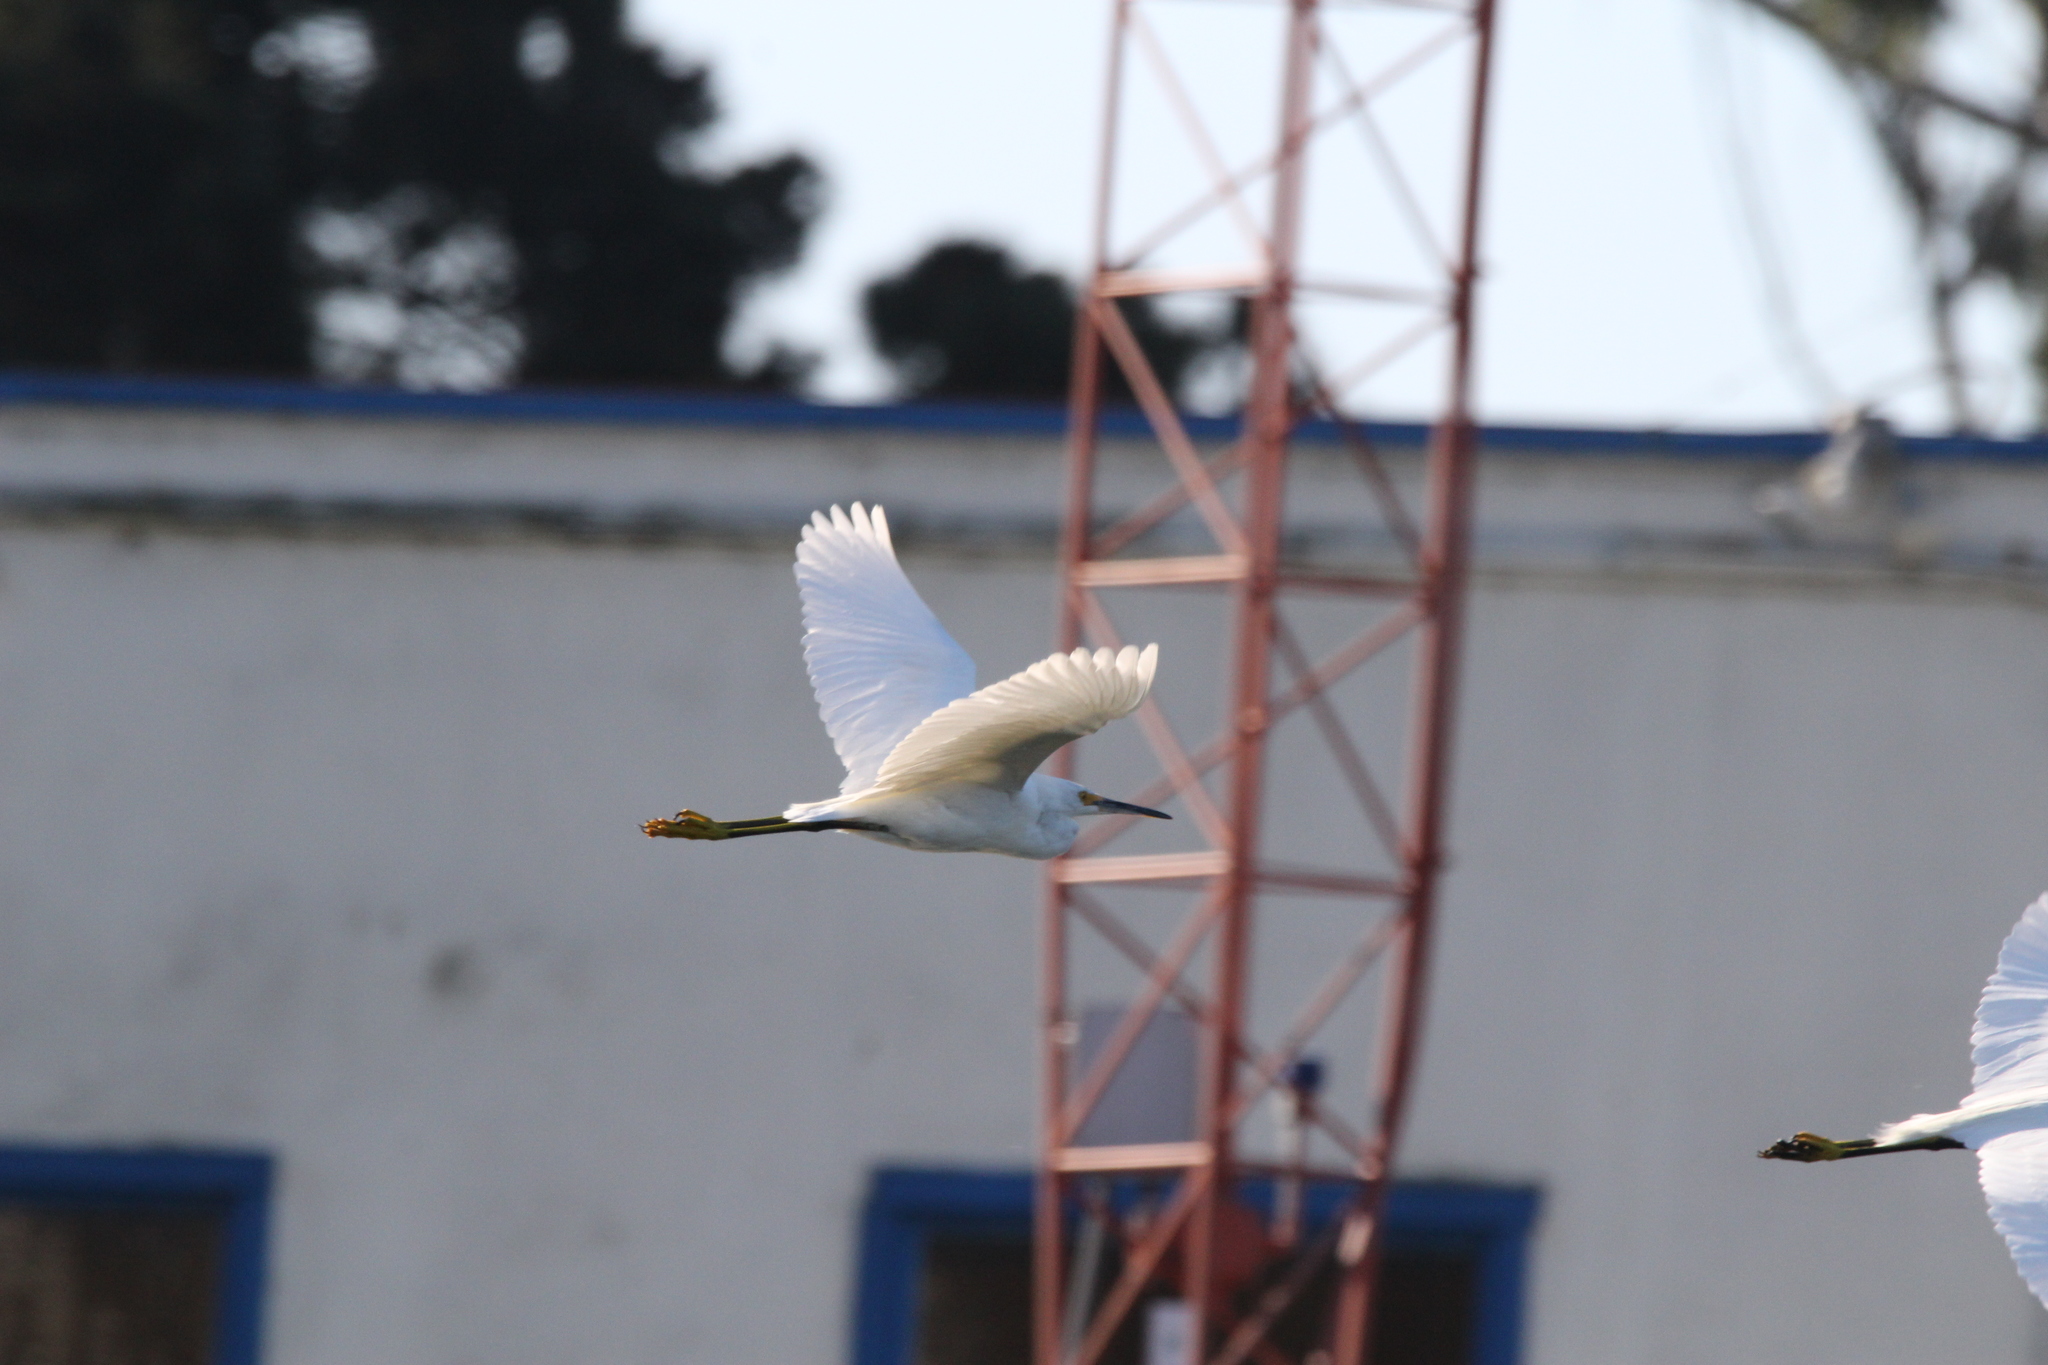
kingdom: Animalia
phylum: Chordata
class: Aves
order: Pelecaniformes
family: Ardeidae
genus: Egretta
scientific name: Egretta thula
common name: Snowy egret
